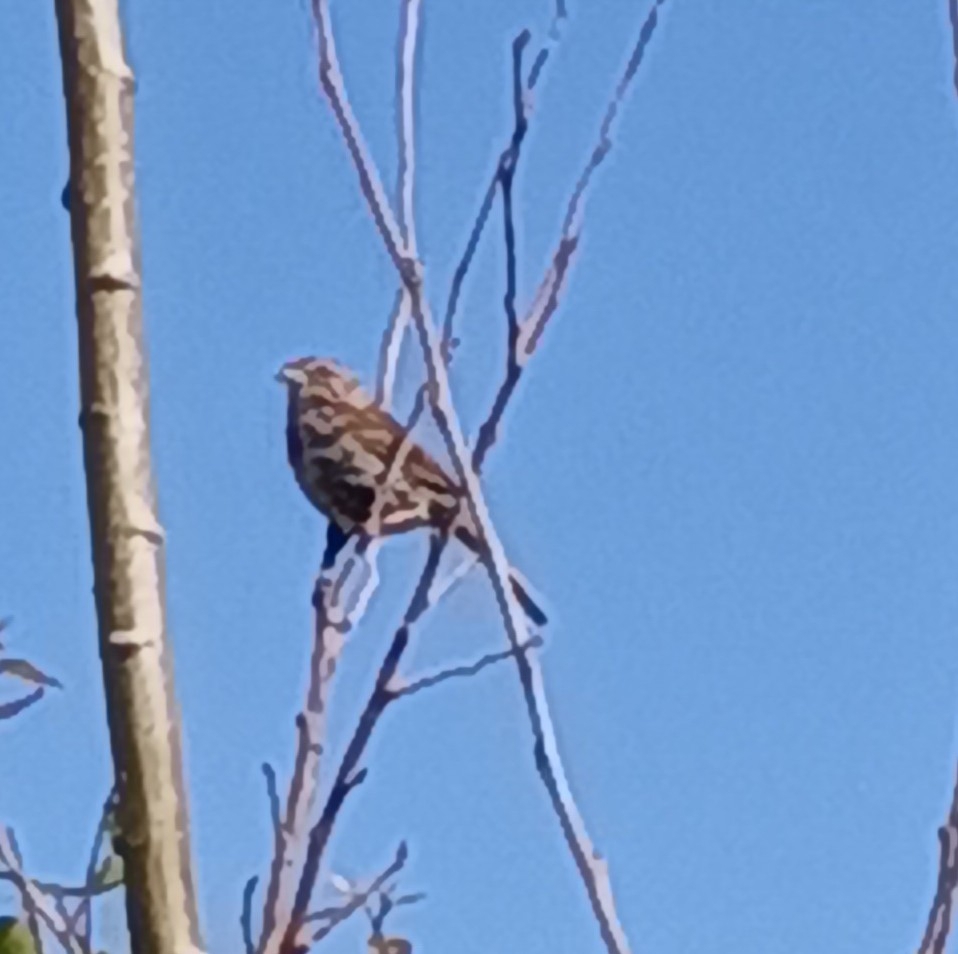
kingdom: Animalia
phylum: Chordata
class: Aves
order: Passeriformes
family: Passerellidae
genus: Melospiza
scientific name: Melospiza melodia
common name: Song sparrow
